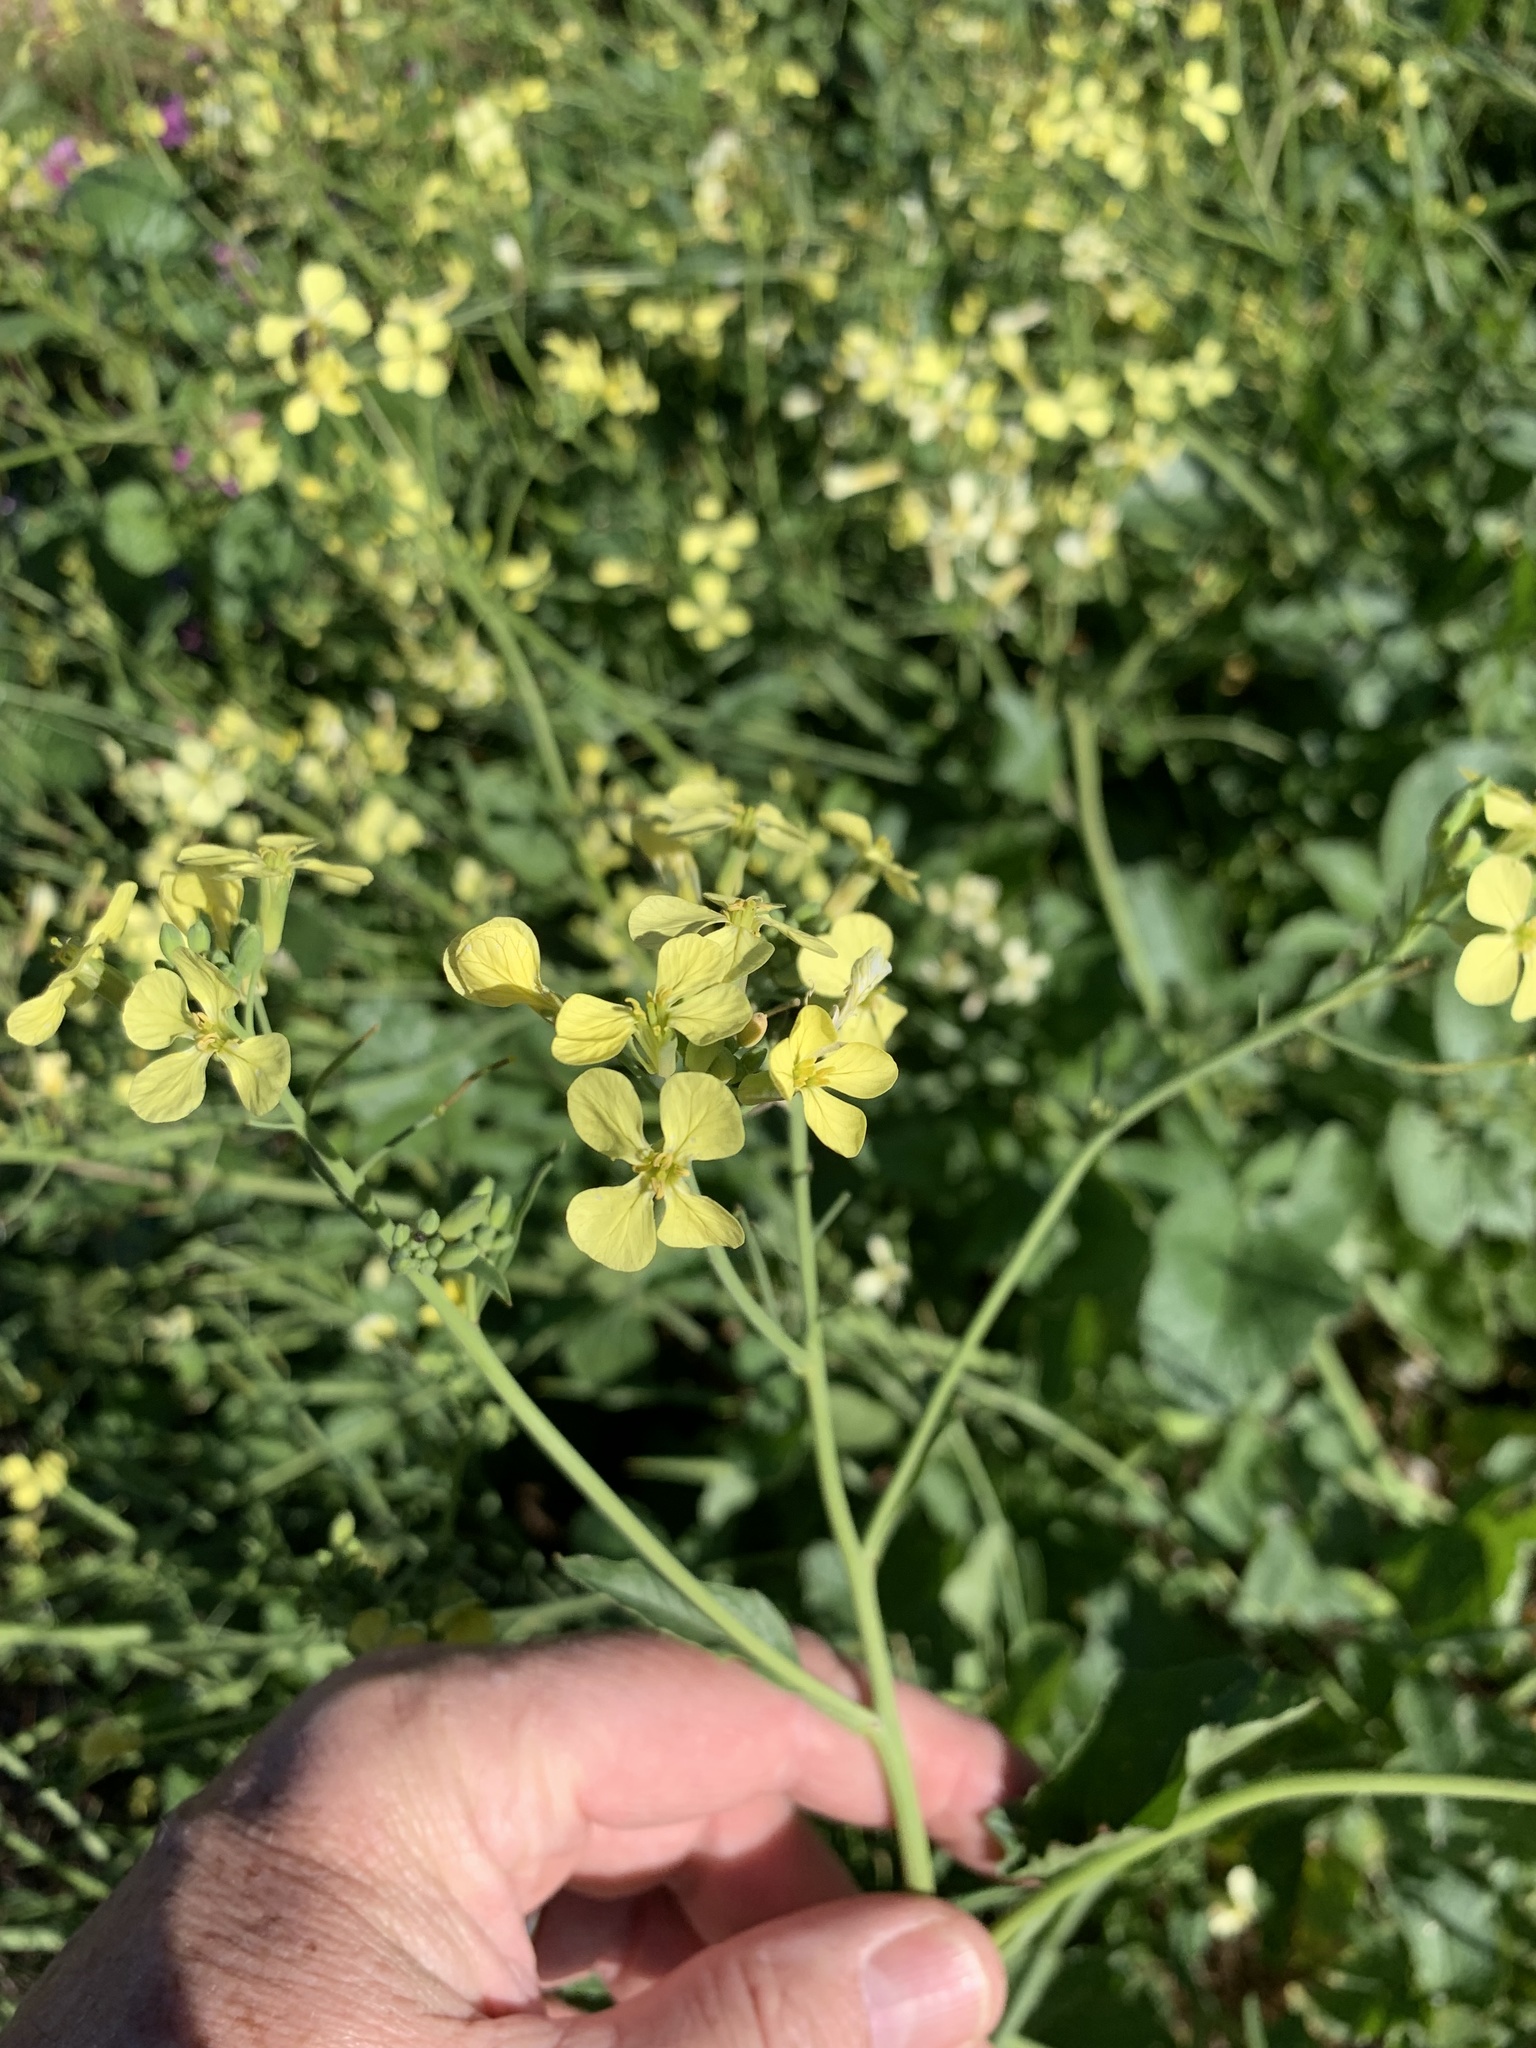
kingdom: Plantae
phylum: Tracheophyta
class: Magnoliopsida
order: Brassicales
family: Brassicaceae
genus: Raphanus
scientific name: Raphanus raphanistrum
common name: Wild radish
